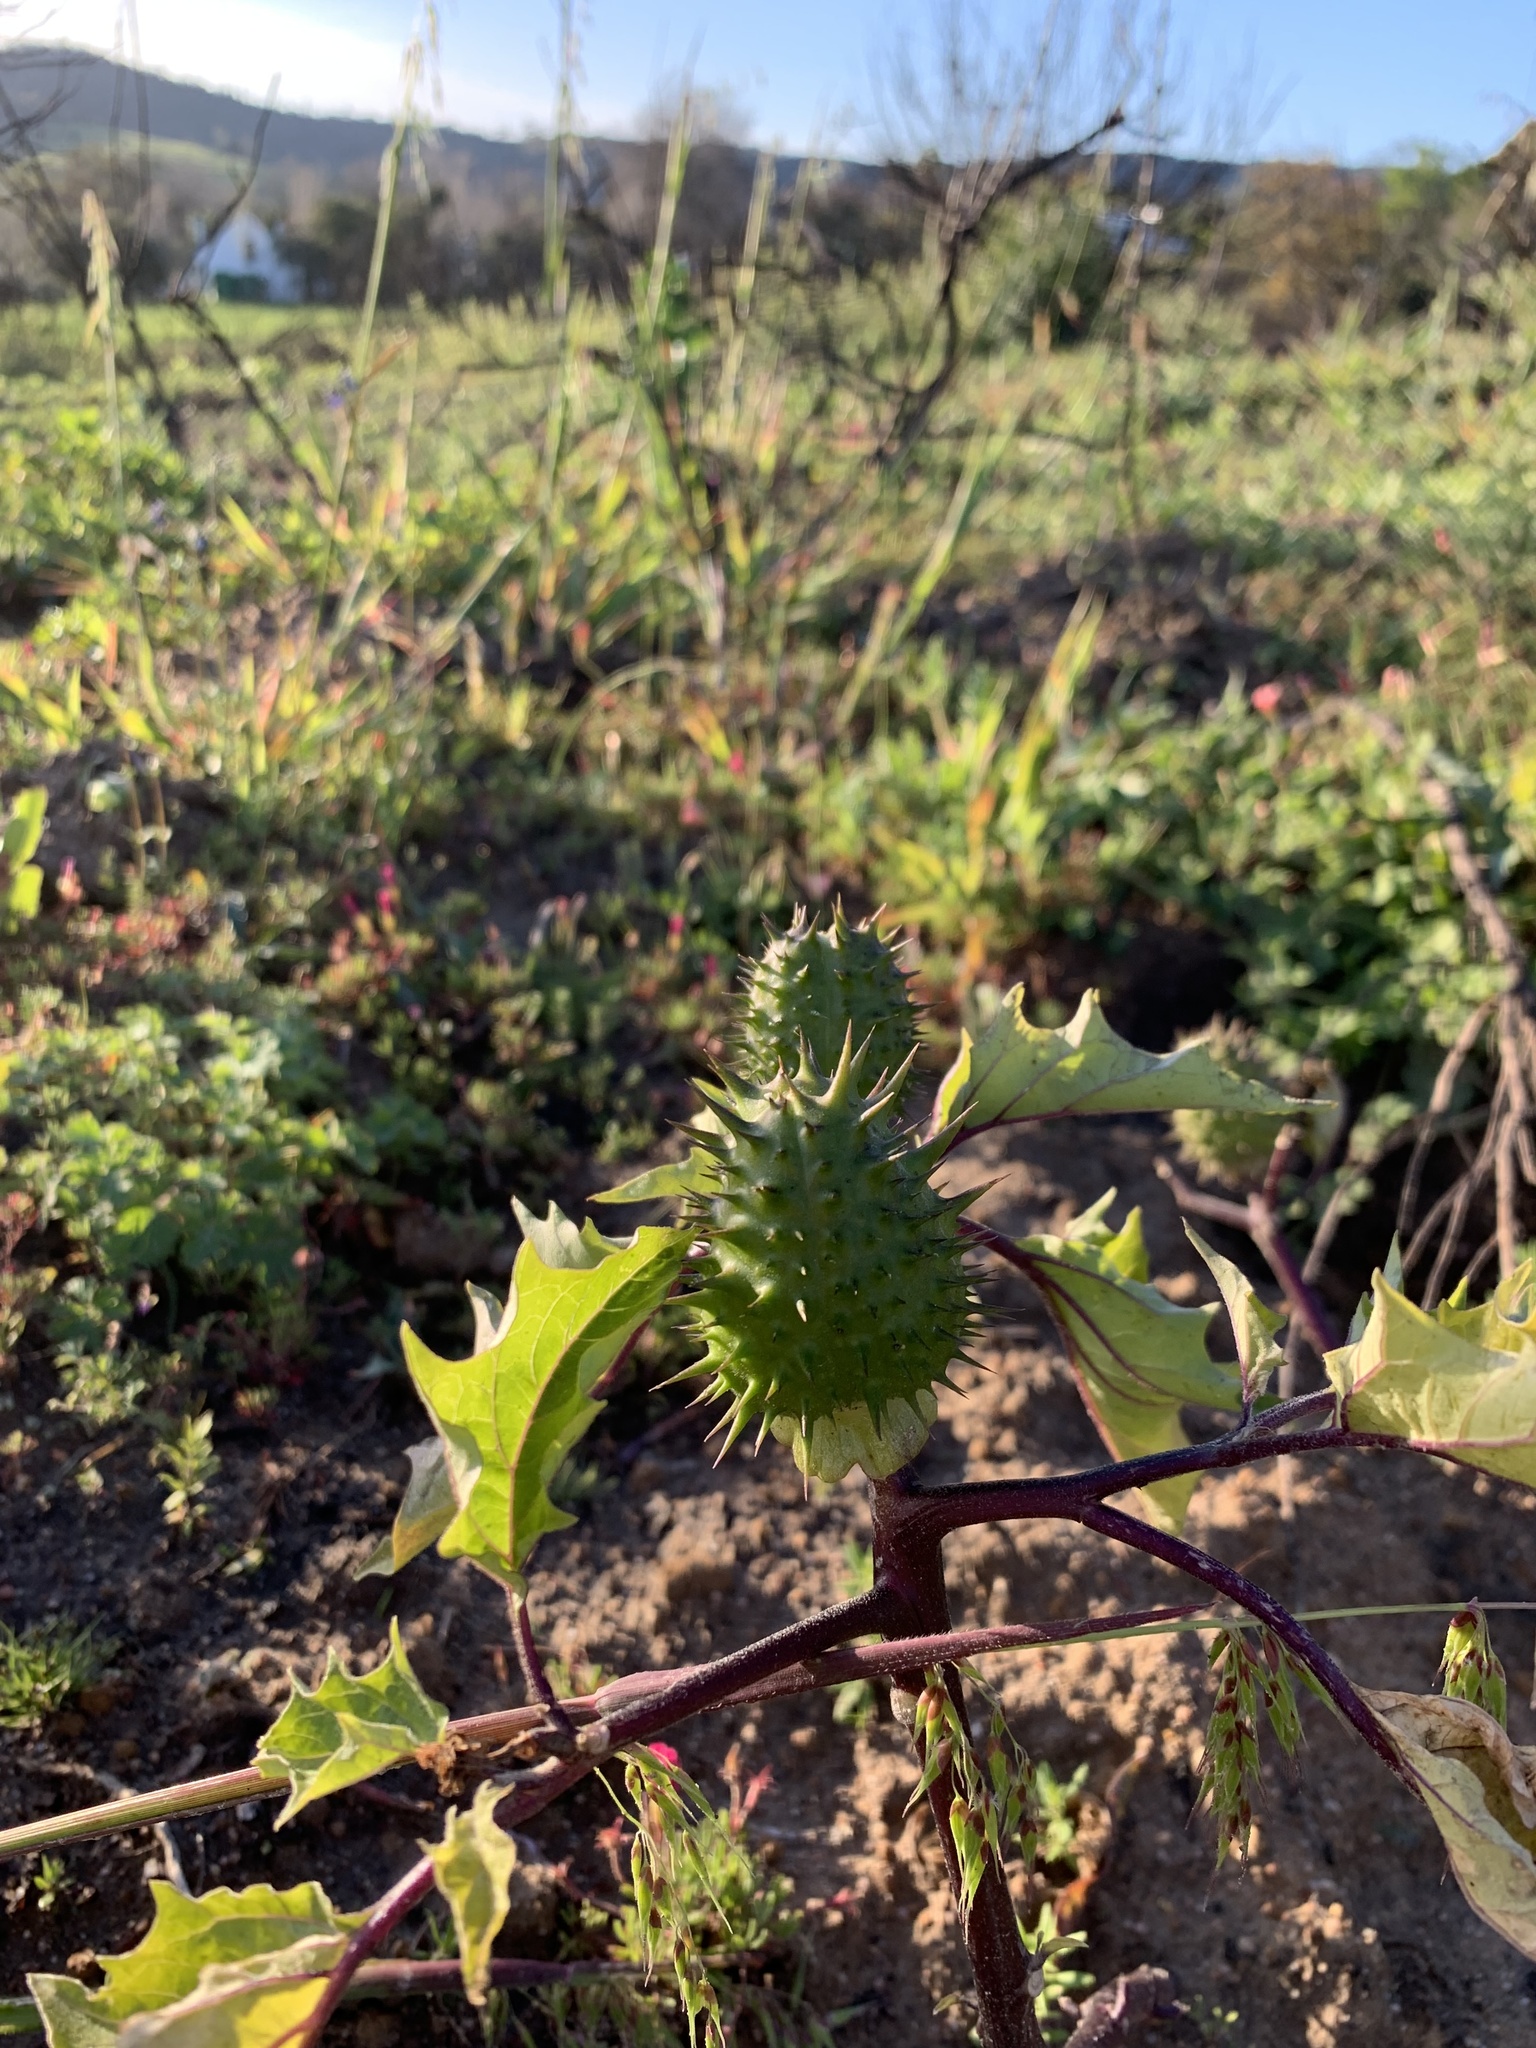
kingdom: Plantae
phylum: Tracheophyta
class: Magnoliopsida
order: Solanales
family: Solanaceae
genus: Datura
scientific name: Datura stramonium
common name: Thorn-apple
